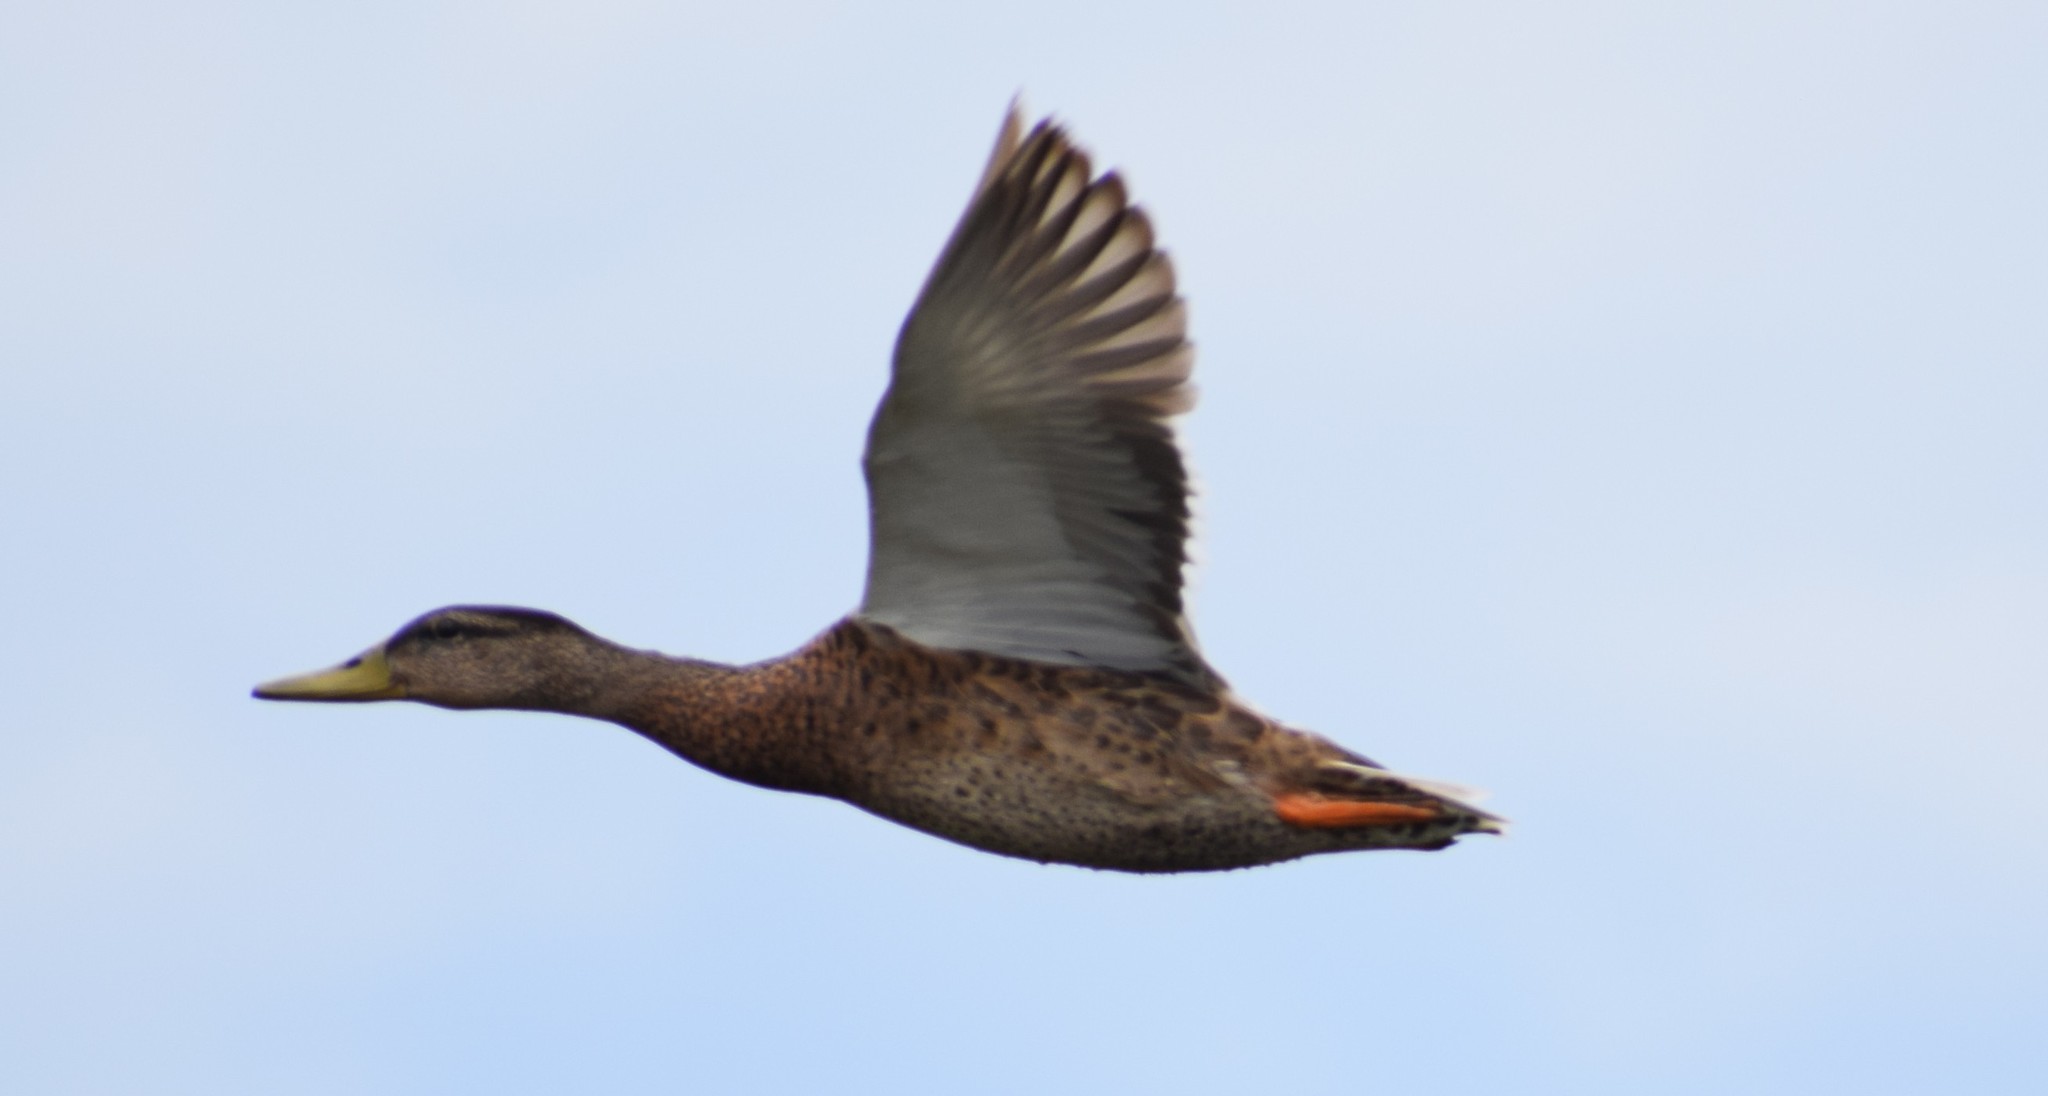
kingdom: Animalia
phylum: Chordata
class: Aves
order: Anseriformes
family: Anatidae
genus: Anas
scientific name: Anas platyrhynchos
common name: Mallard
